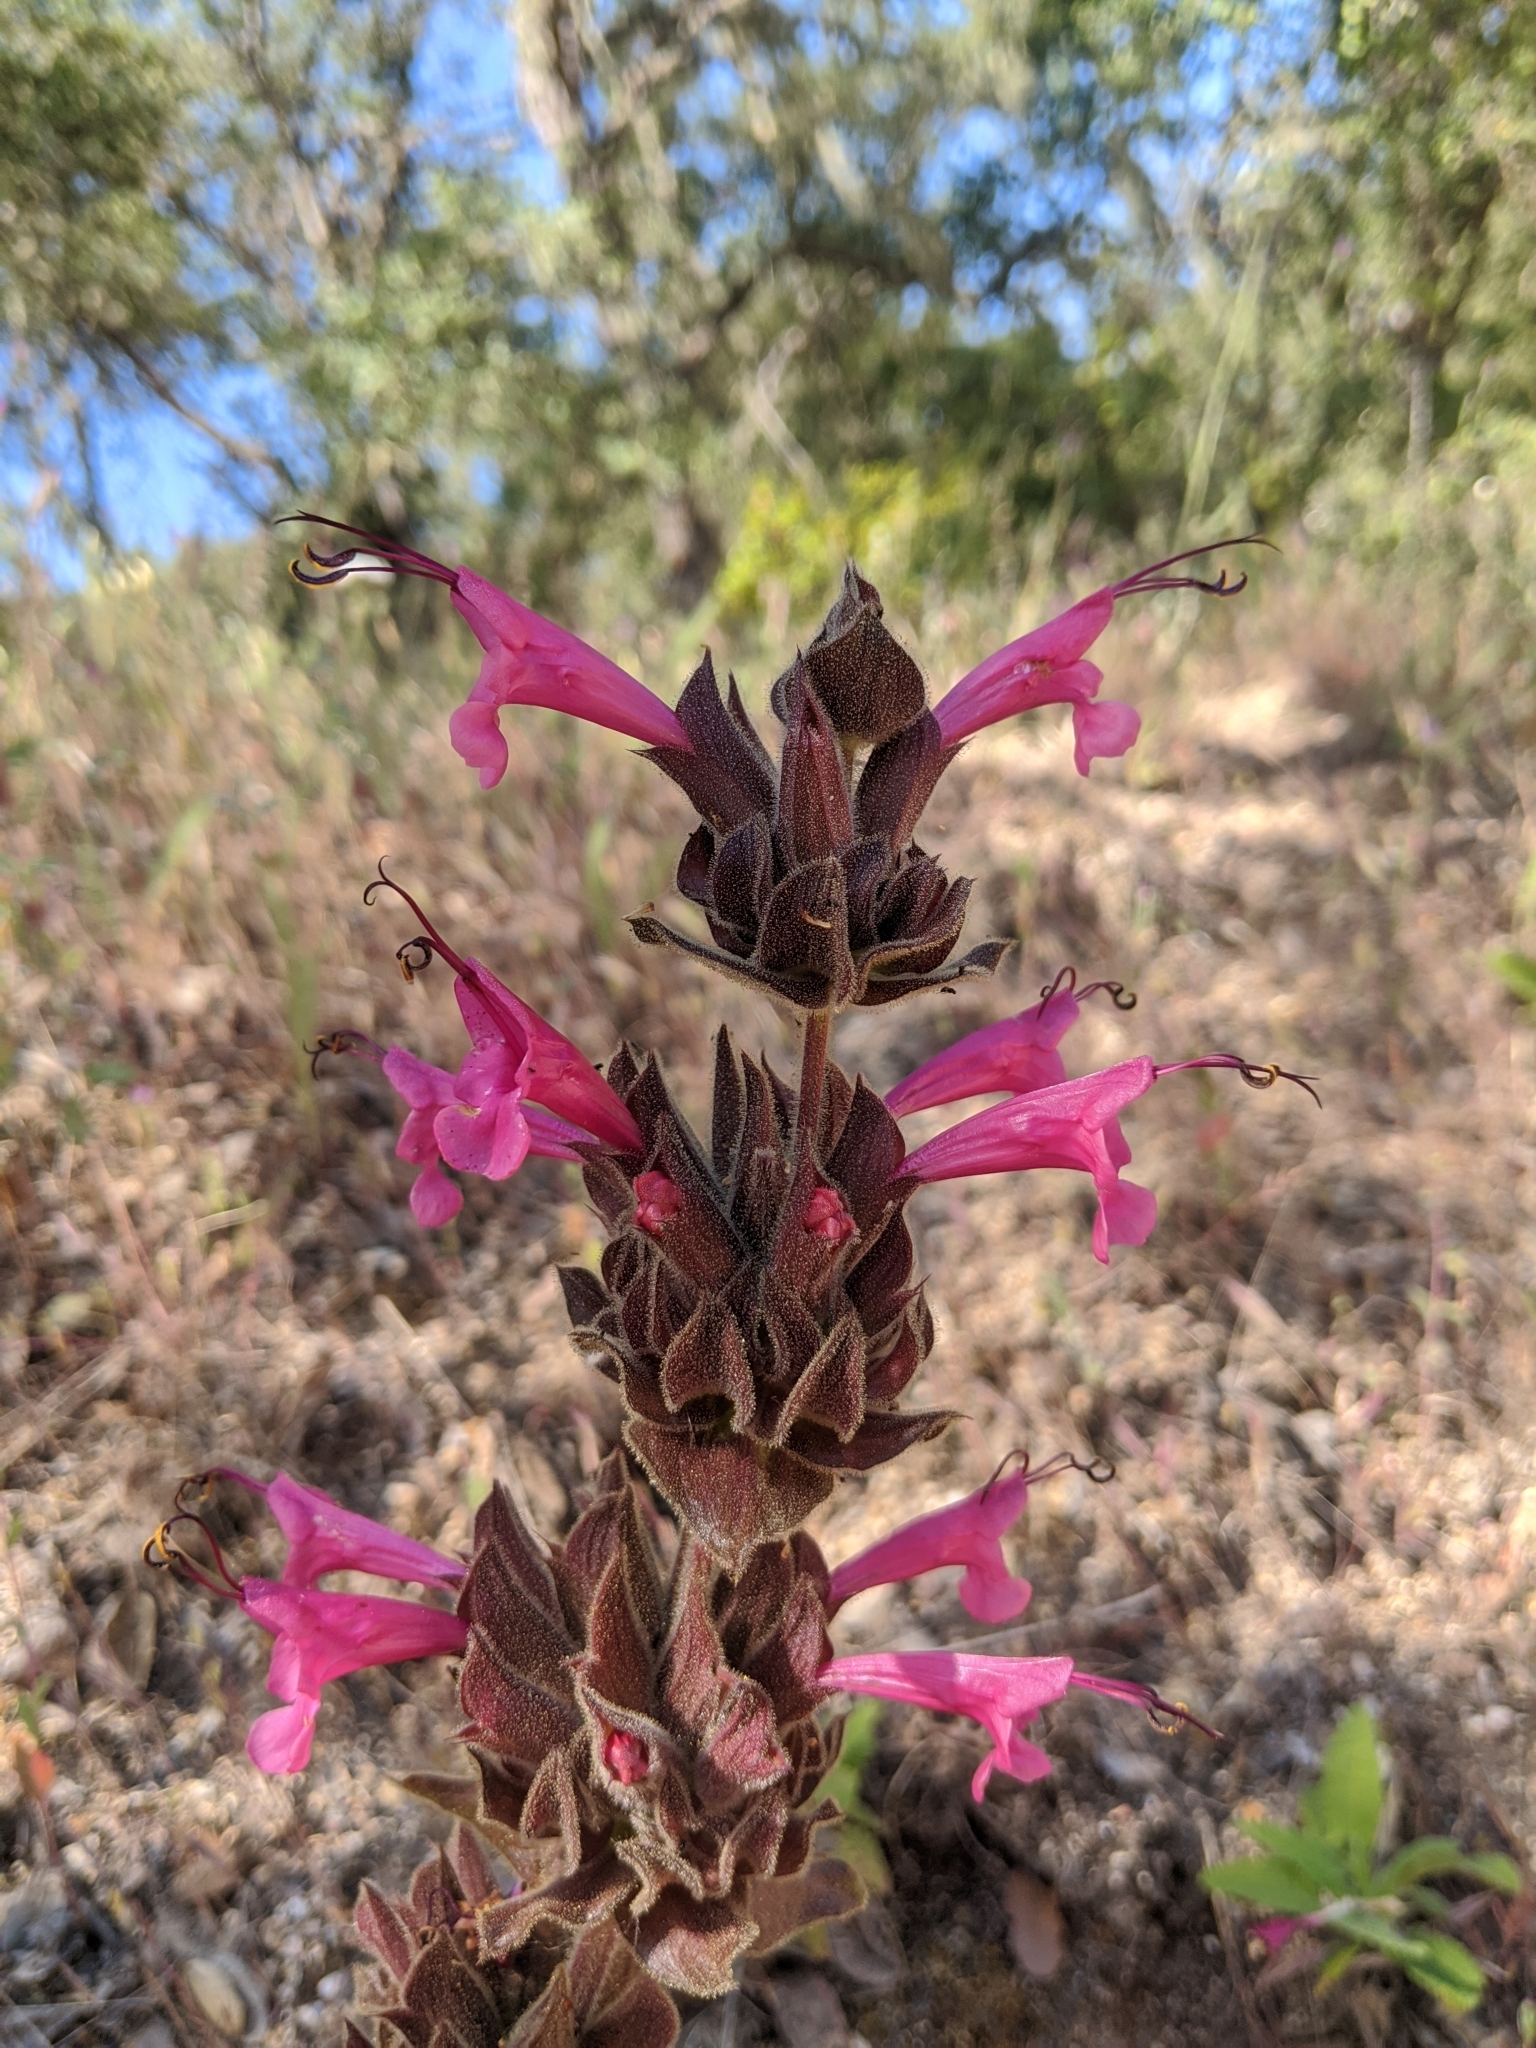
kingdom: Plantae
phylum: Tracheophyta
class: Magnoliopsida
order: Lamiales
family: Lamiaceae
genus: Salvia
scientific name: Salvia spathacea
